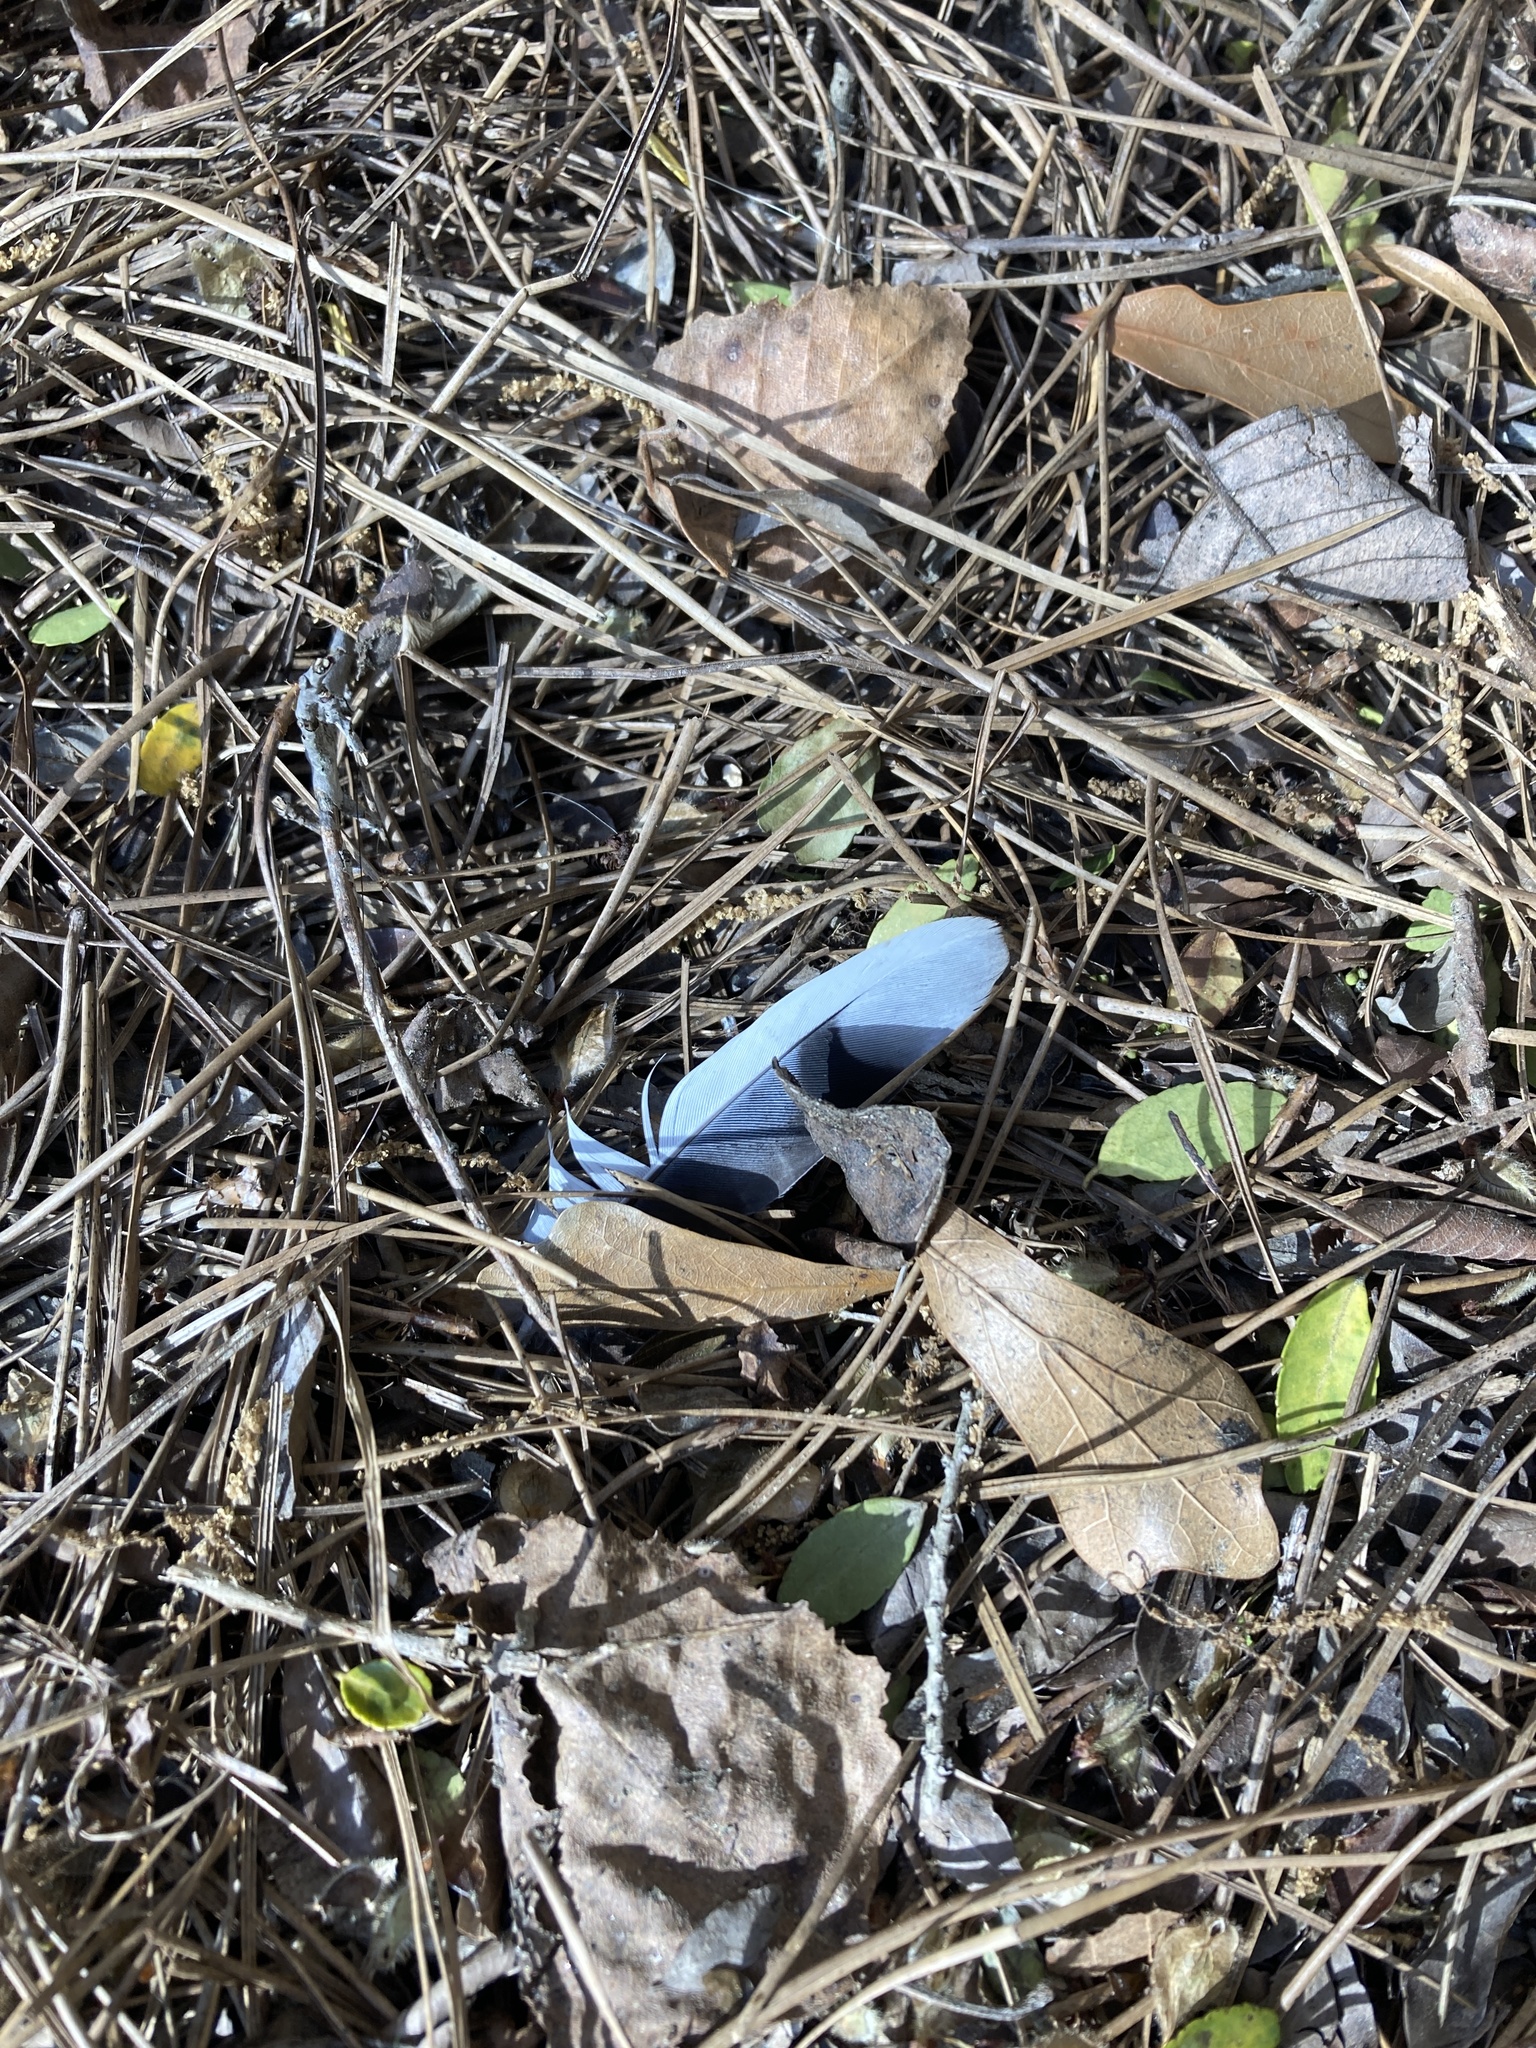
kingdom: Animalia
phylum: Chordata
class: Aves
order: Columbiformes
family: Columbidae
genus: Zenaida
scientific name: Zenaida macroura
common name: Mourning dove
